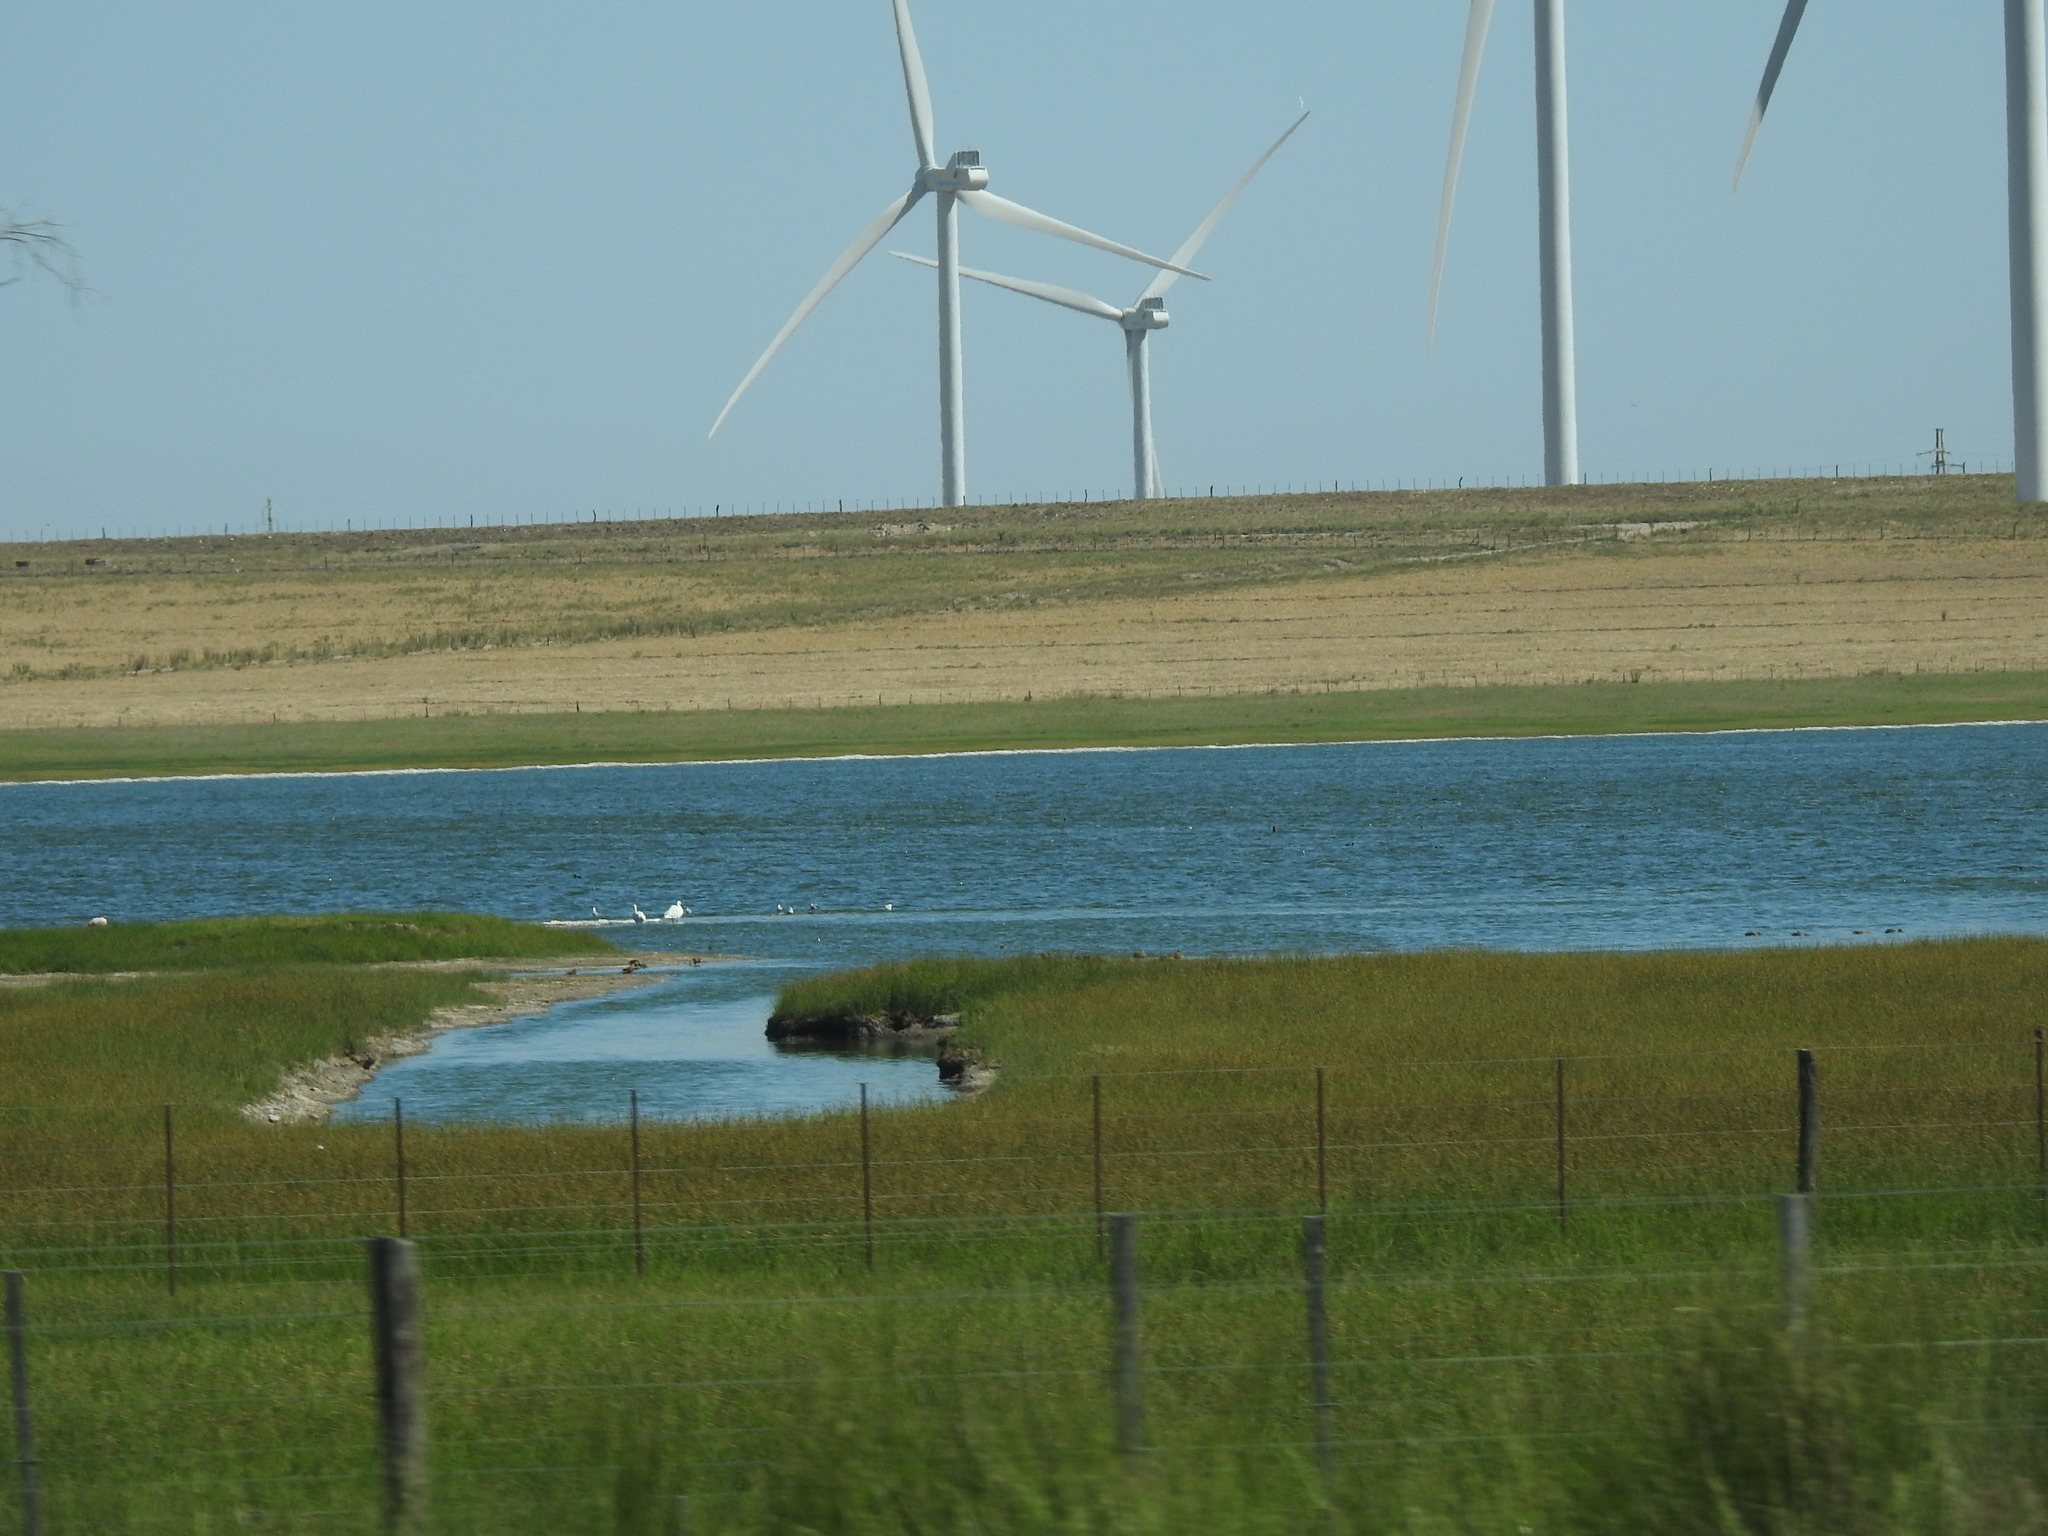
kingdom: Animalia
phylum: Chordata
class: Aves
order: Anseriformes
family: Anatidae
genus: Coscoroba
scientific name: Coscoroba coscoroba
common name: Coscoroba swan
